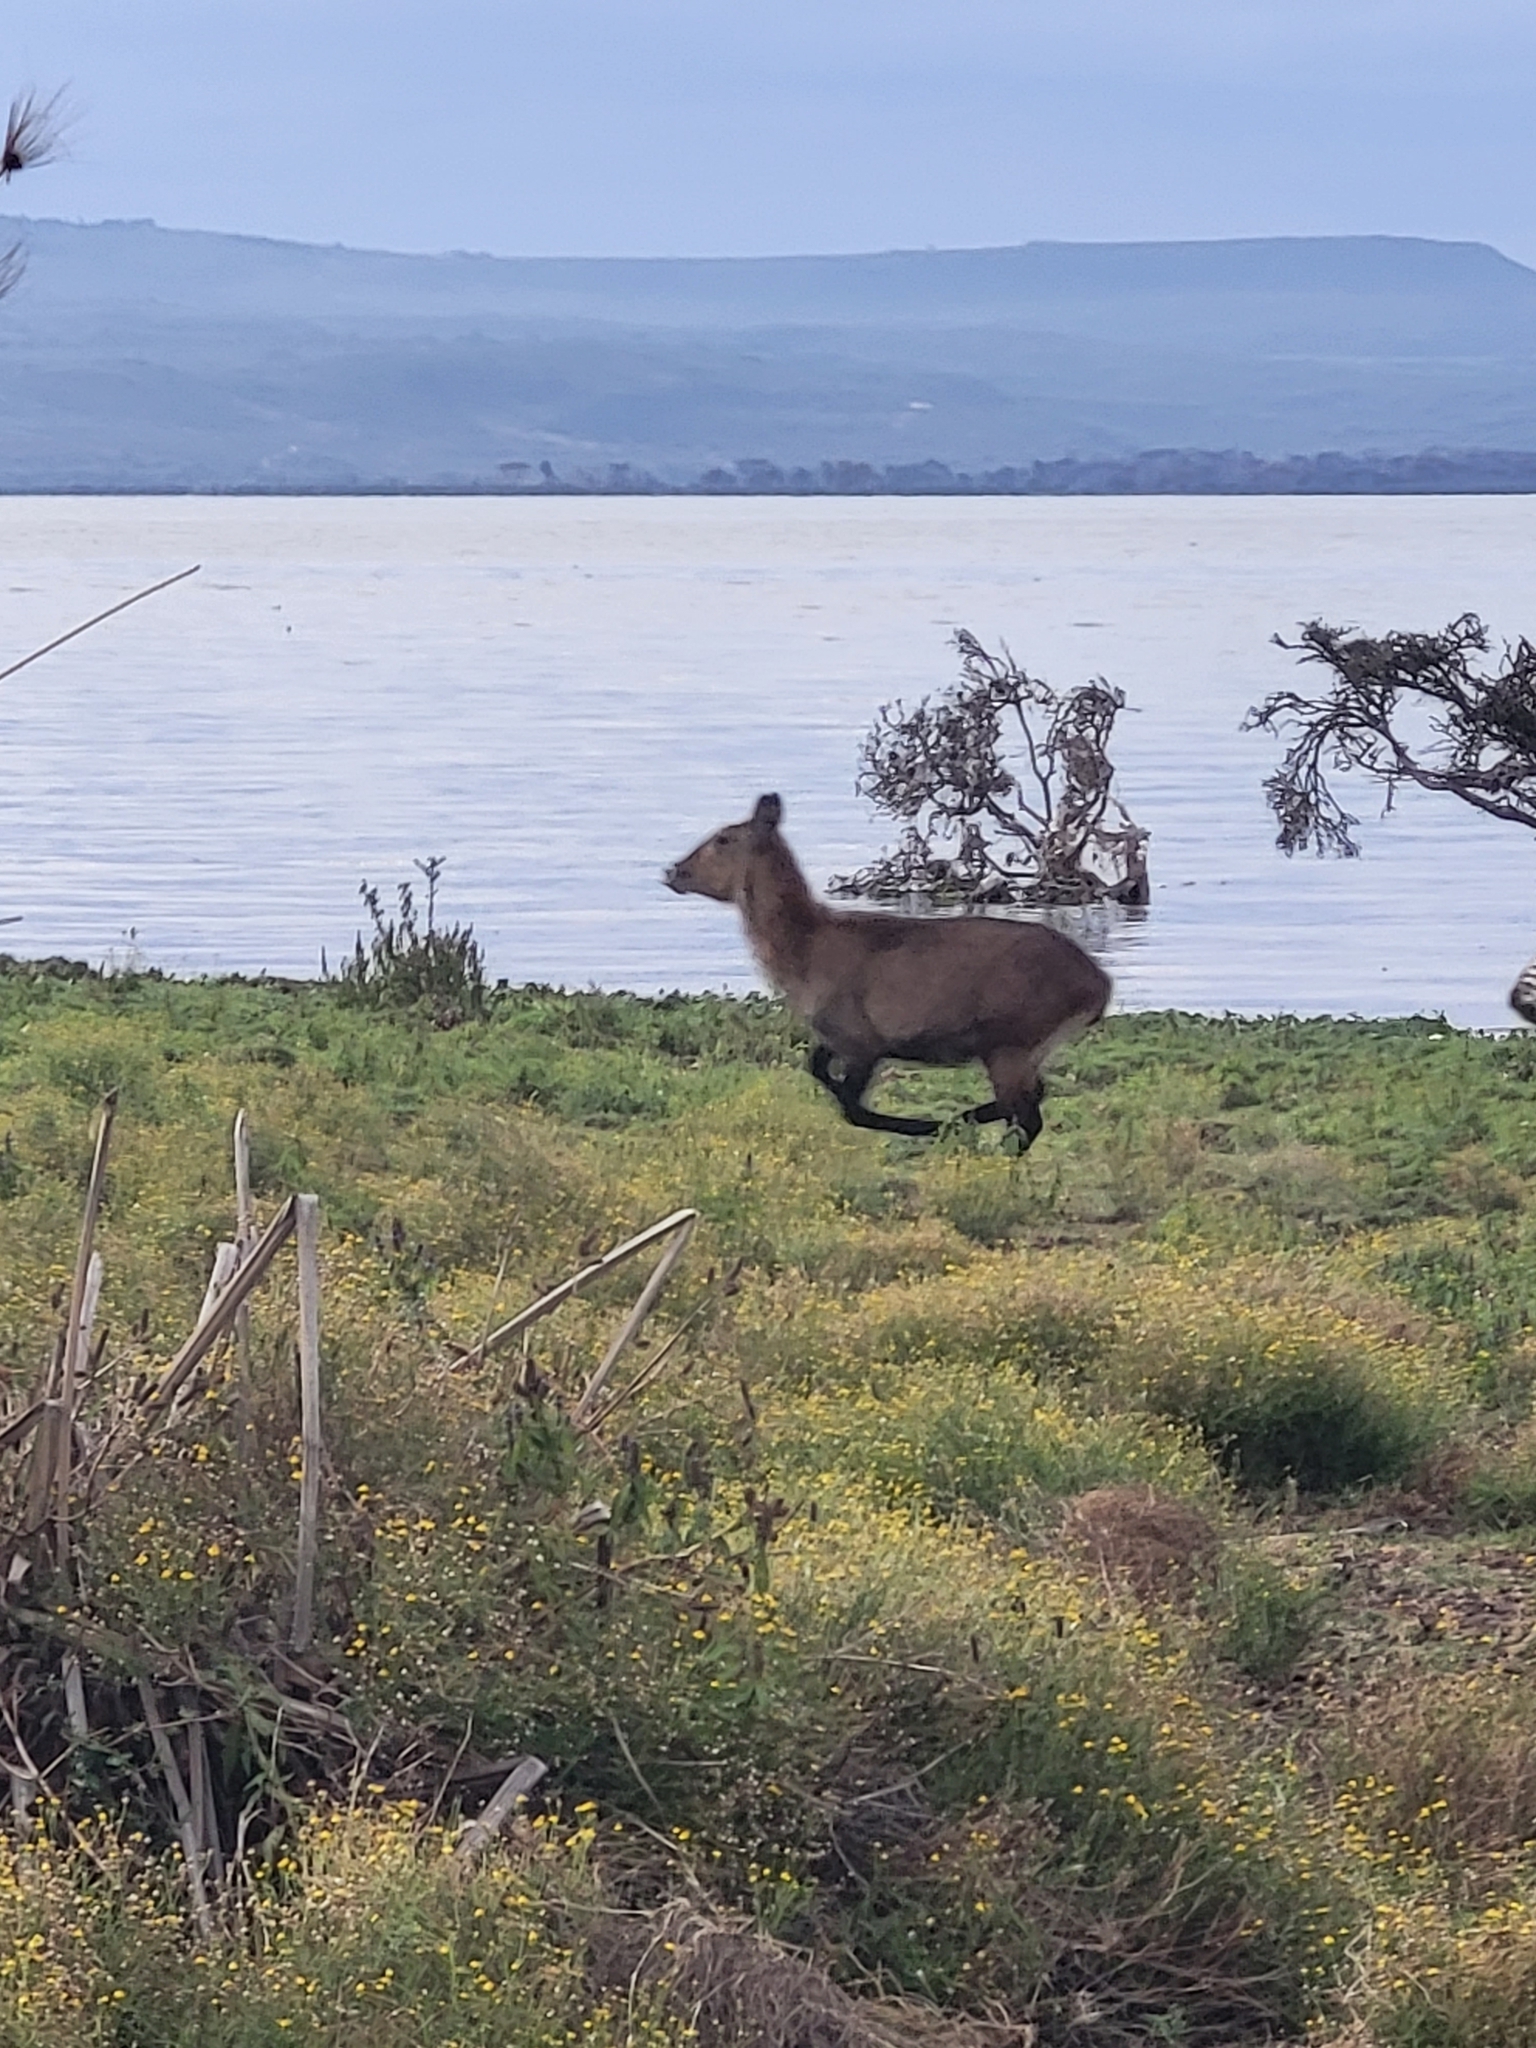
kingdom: Animalia
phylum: Chordata
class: Mammalia
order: Artiodactyla
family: Bovidae
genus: Kobus
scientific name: Kobus ellipsiprymnus
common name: Waterbuck
